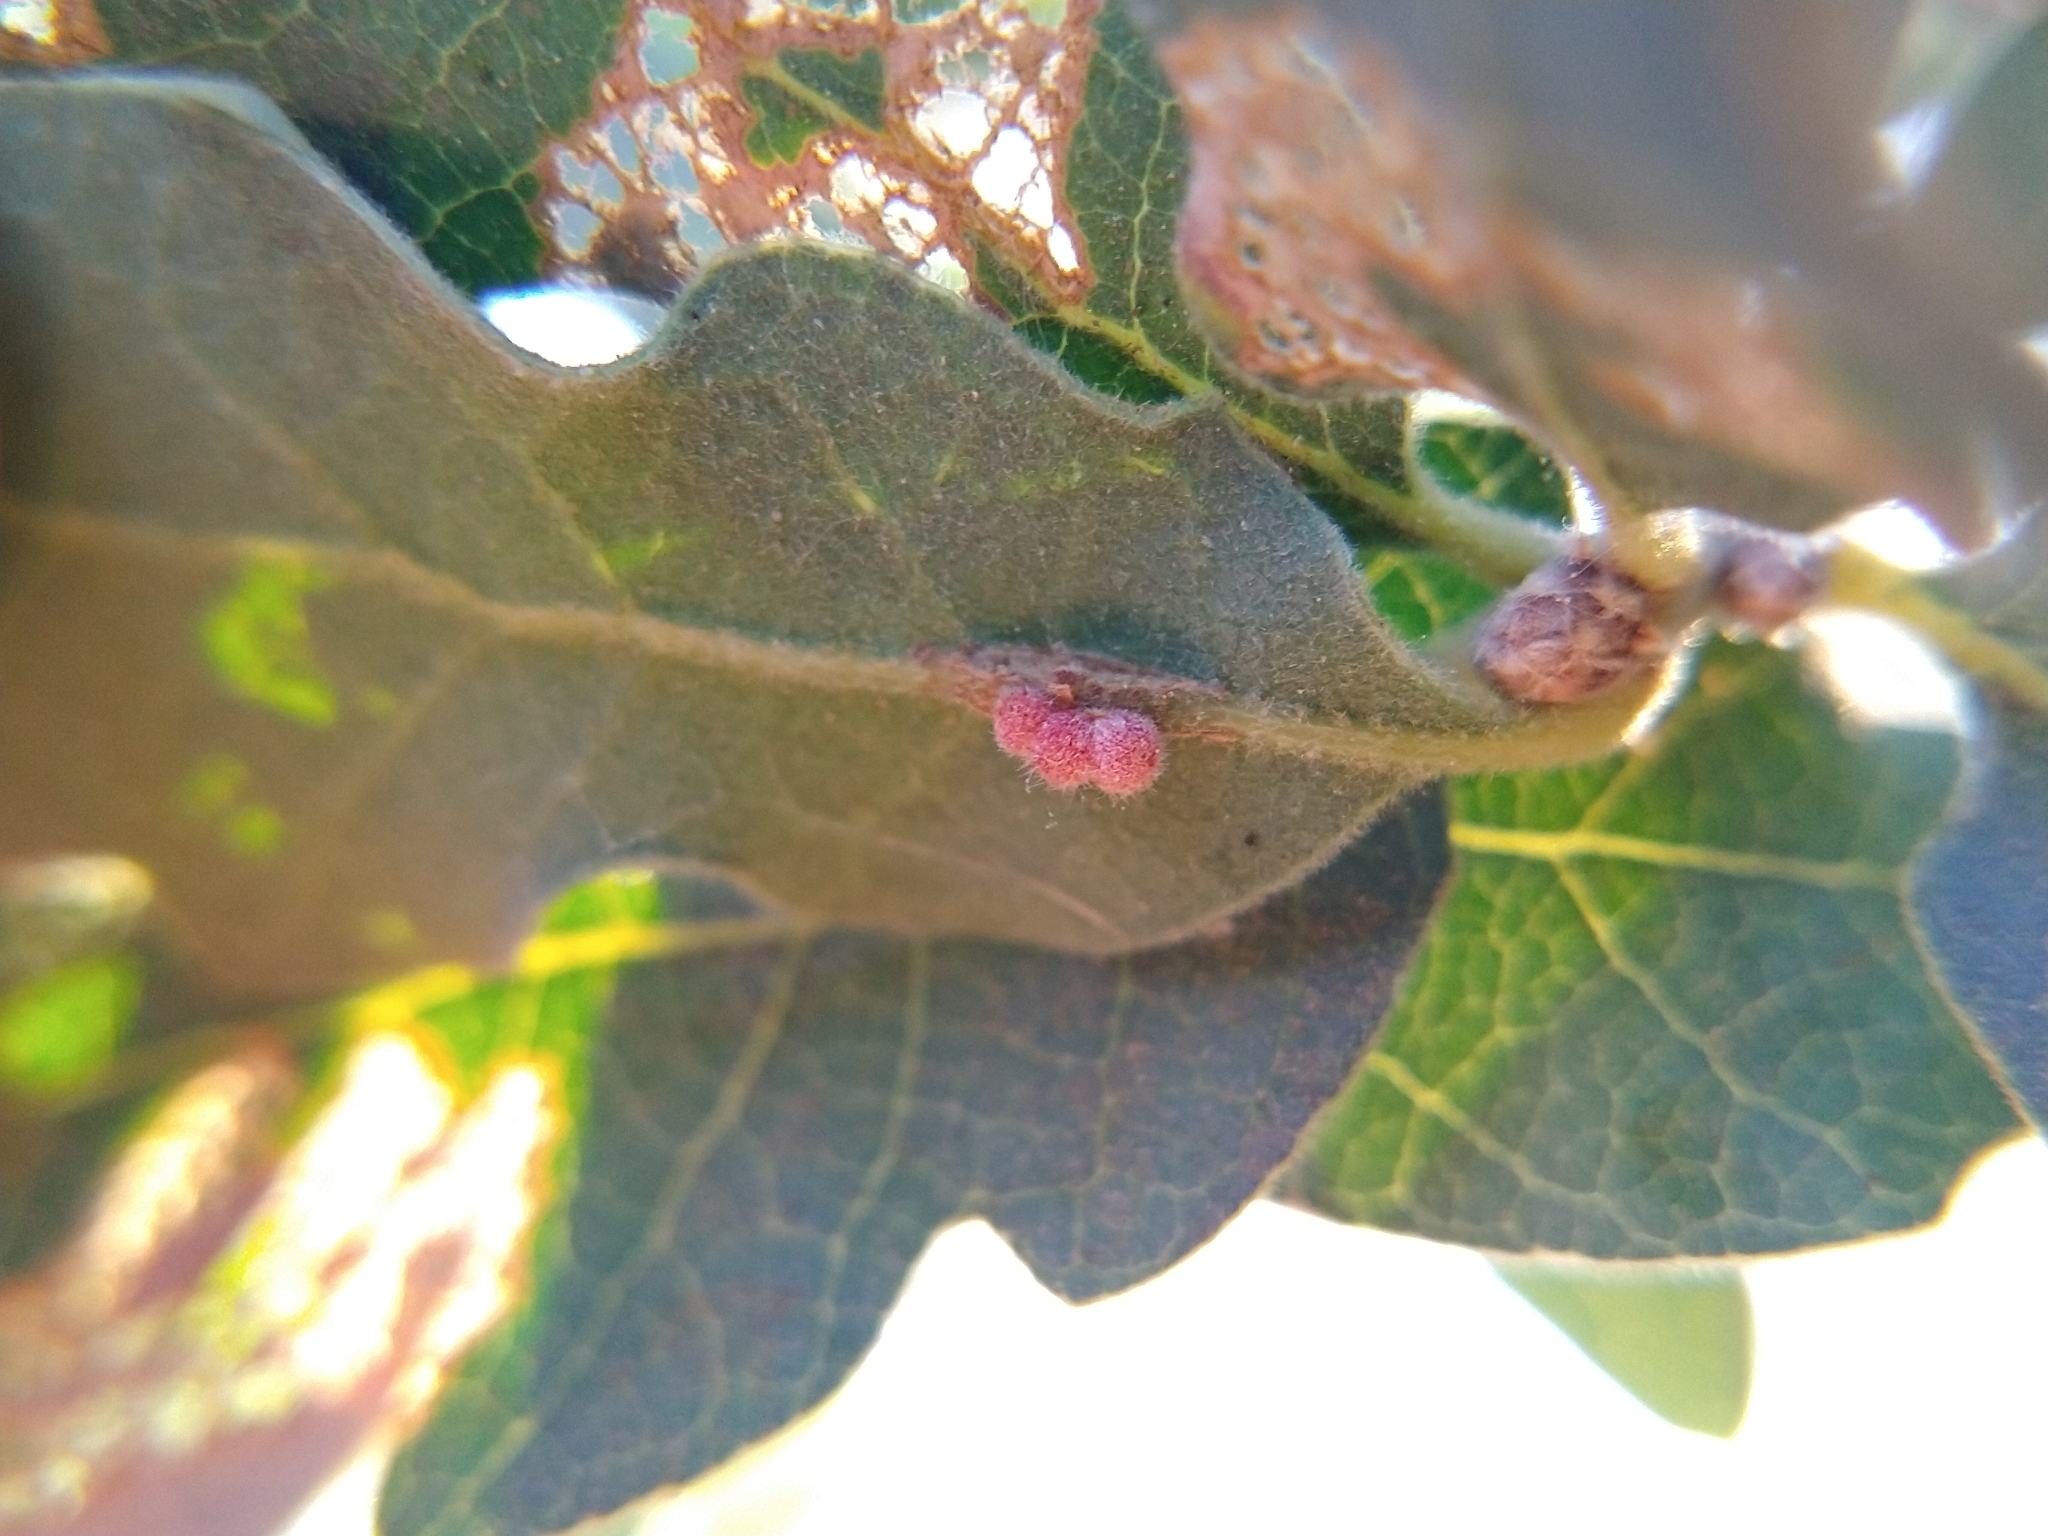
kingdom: Animalia
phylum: Arthropoda
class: Insecta
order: Hymenoptera
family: Cynipidae
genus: Andricus
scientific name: Andricus
